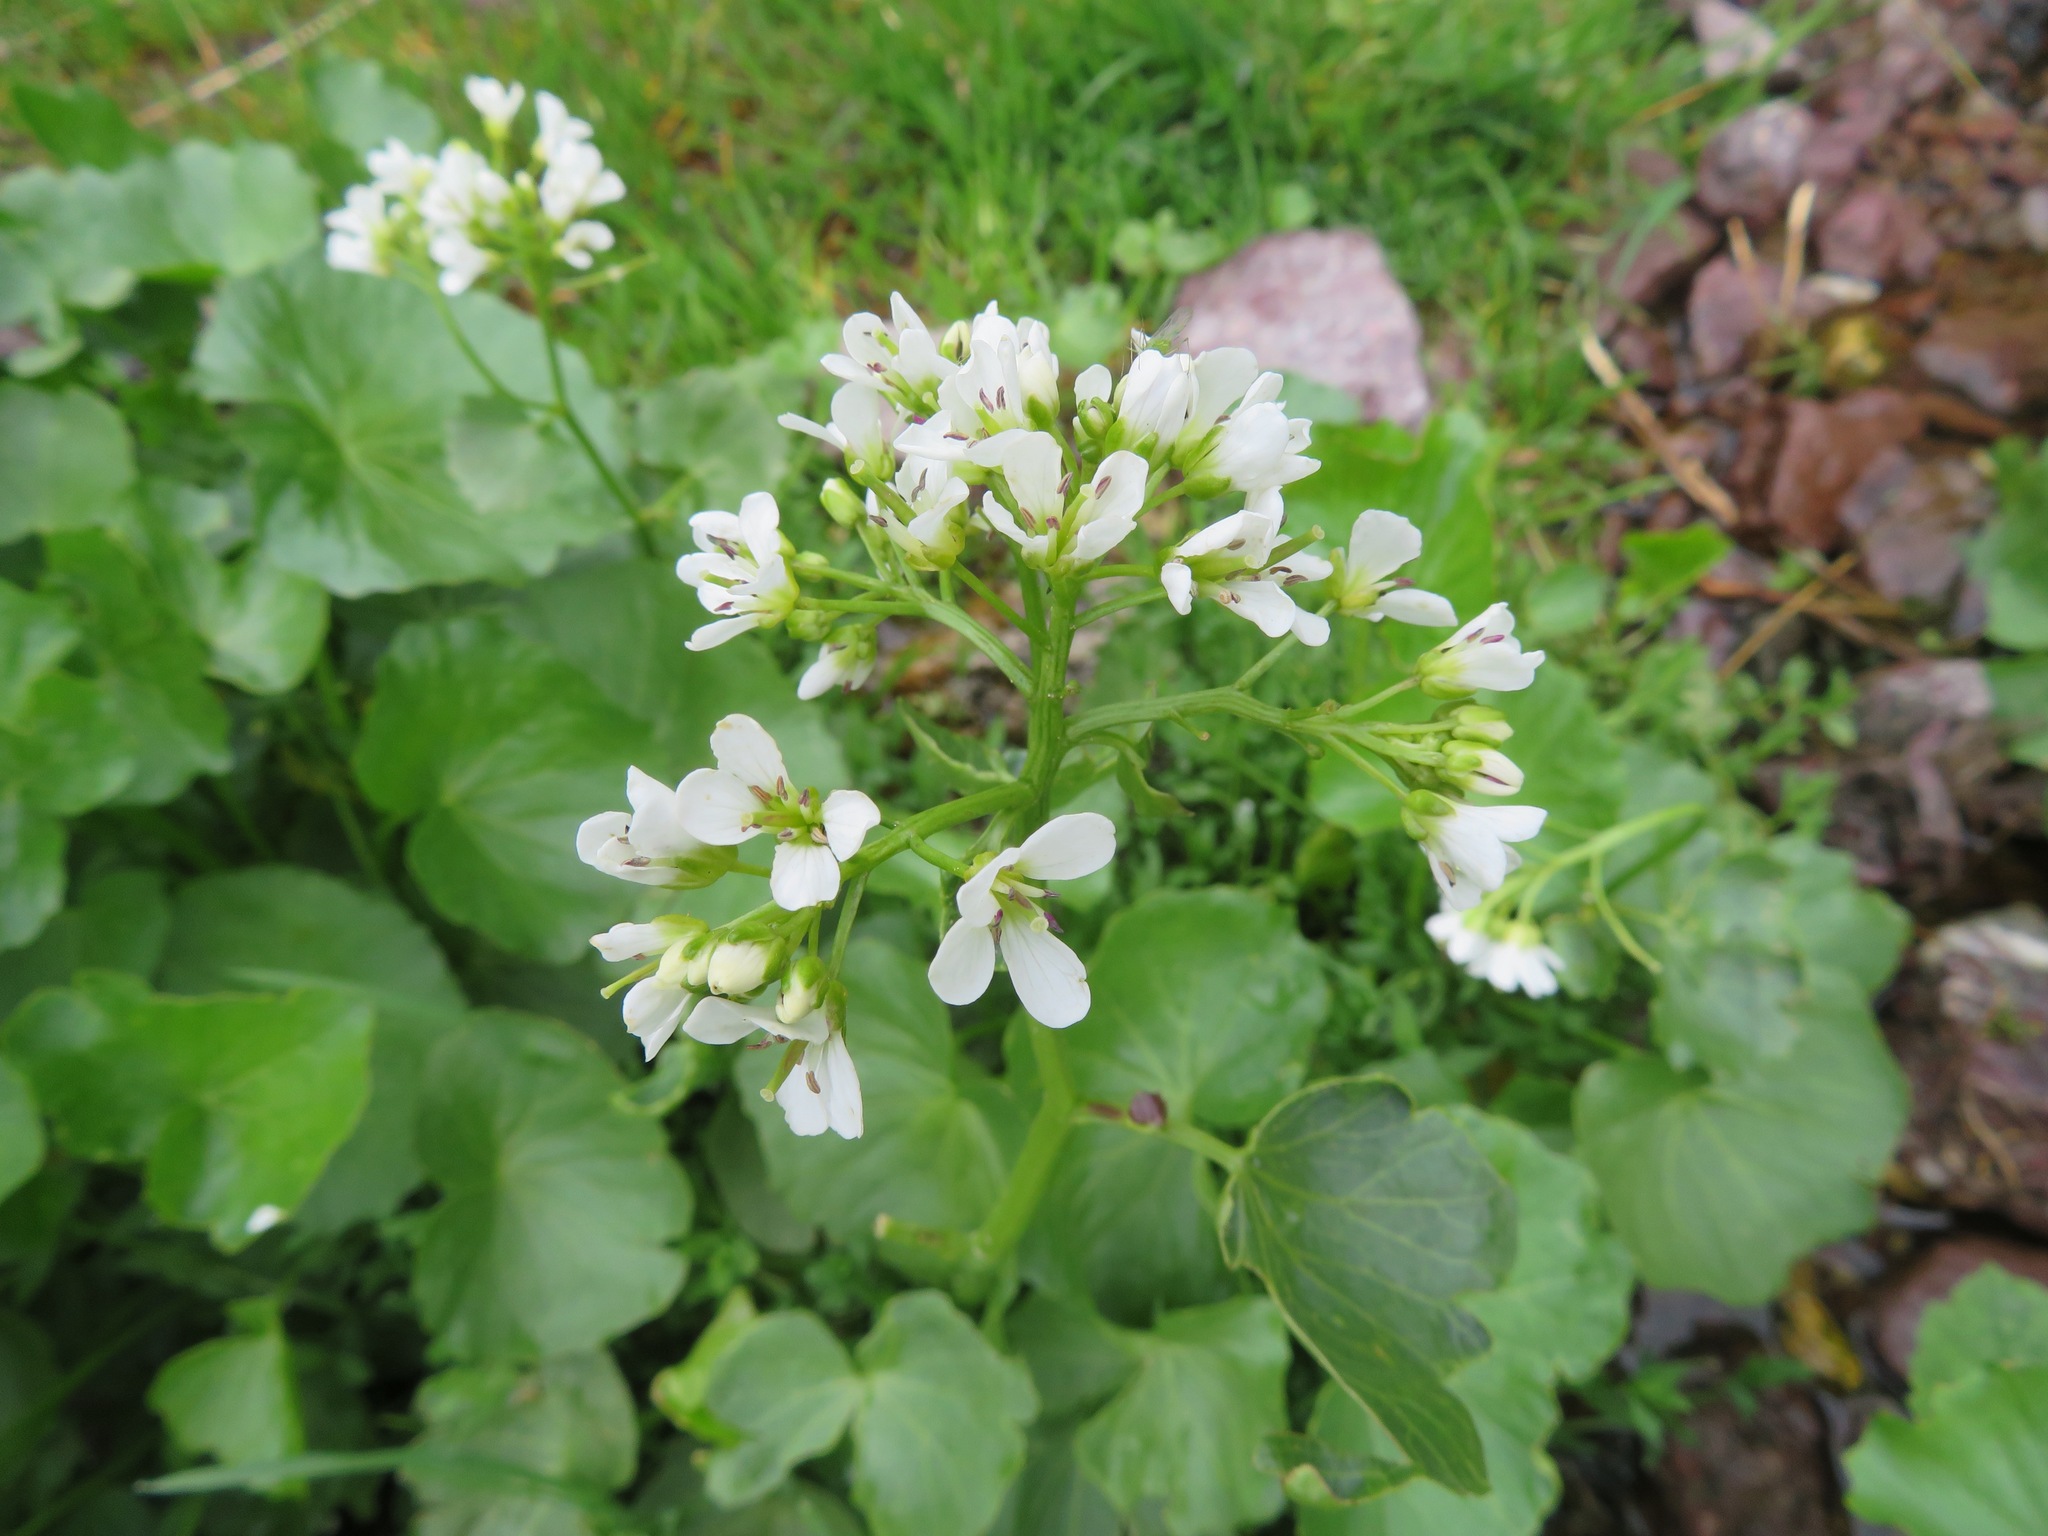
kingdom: Plantae
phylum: Tracheophyta
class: Magnoliopsida
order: Brassicales
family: Brassicaceae
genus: Cardamine
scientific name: Cardamine asarifolia
